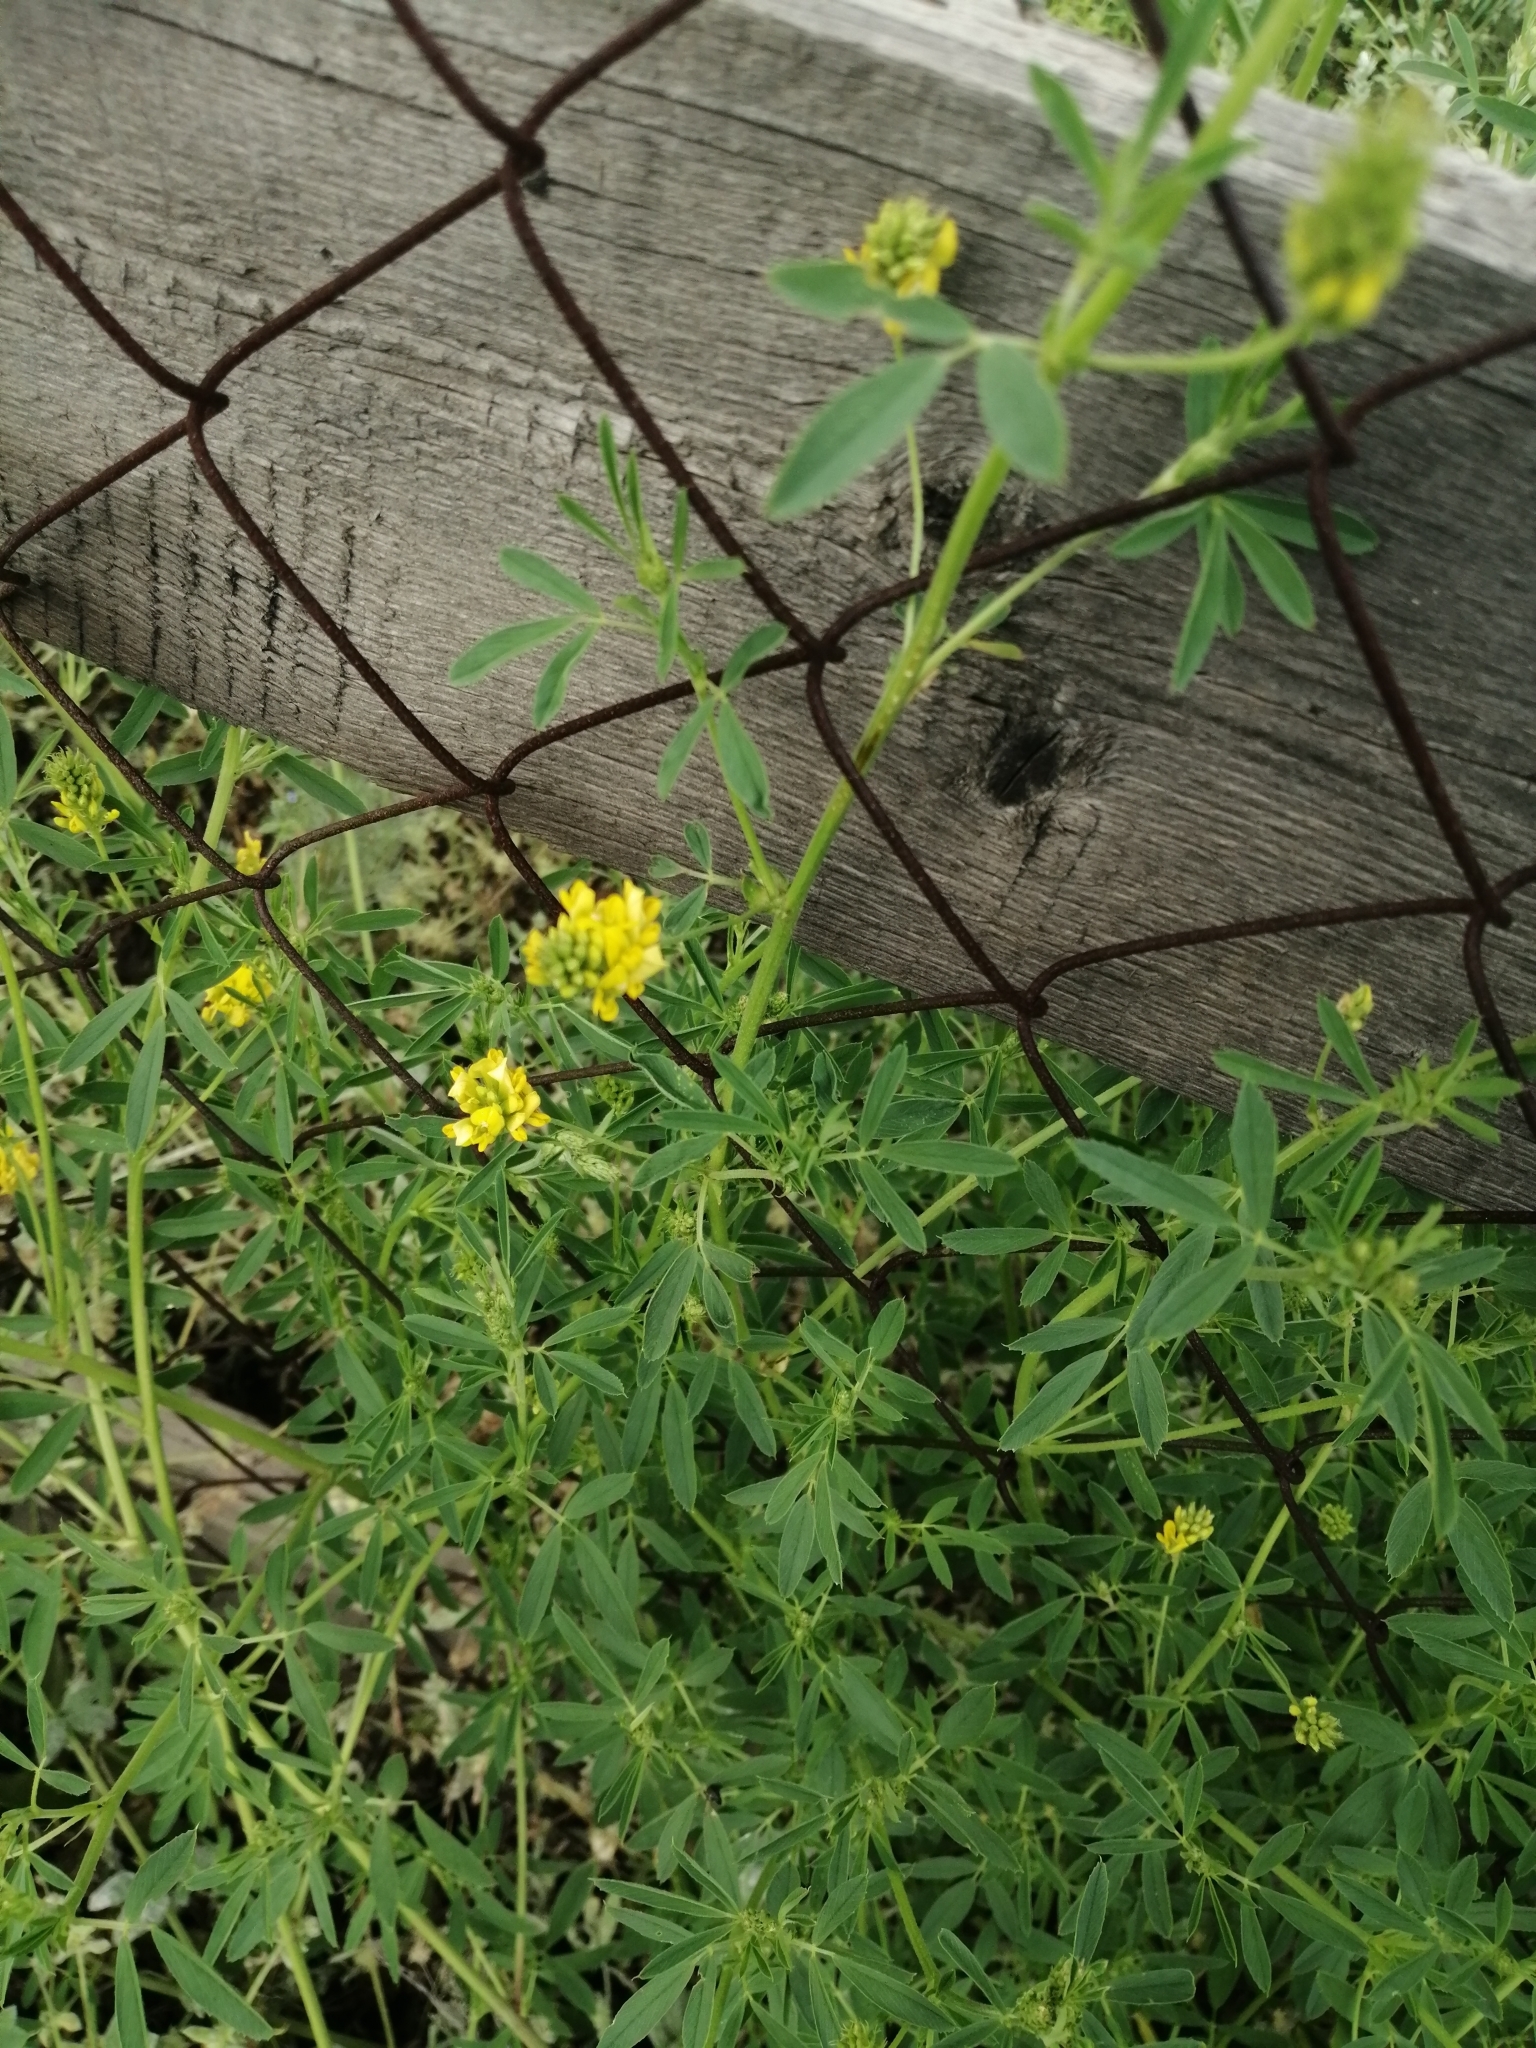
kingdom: Plantae
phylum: Tracheophyta
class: Magnoliopsida
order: Fabales
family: Fabaceae
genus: Medicago
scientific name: Medicago falcata
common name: Sickle medick
